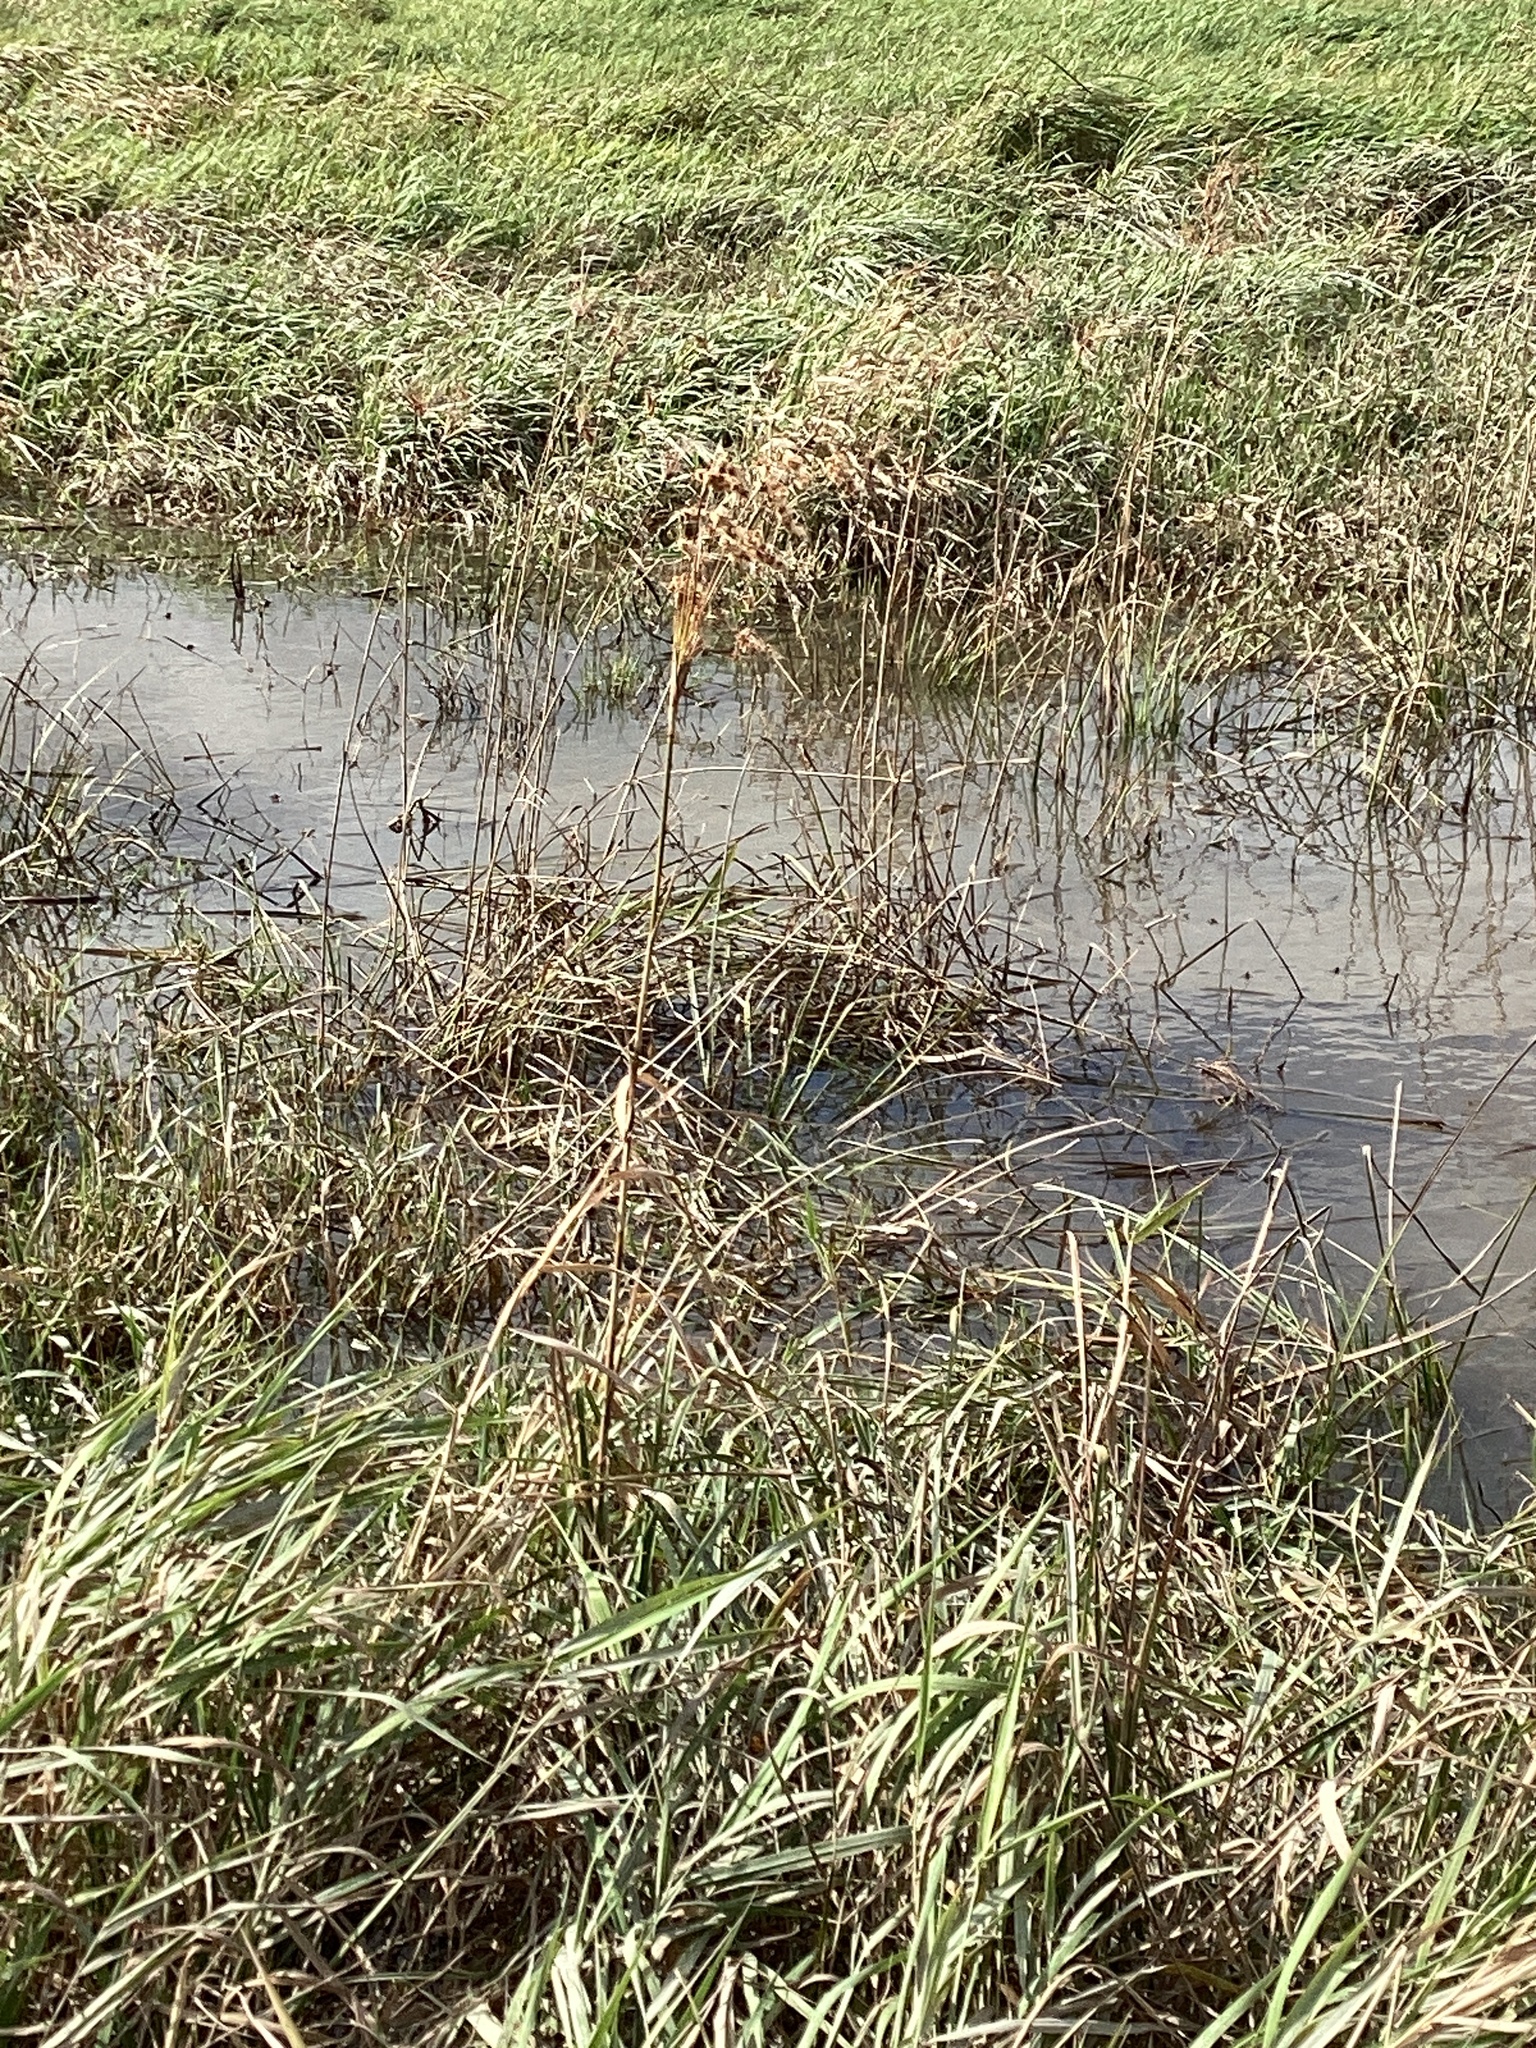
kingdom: Plantae
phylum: Tracheophyta
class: Liliopsida
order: Poales
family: Cyperaceae
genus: Scirpus
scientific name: Scirpus cyperinus
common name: Black-sheathed bulrush
